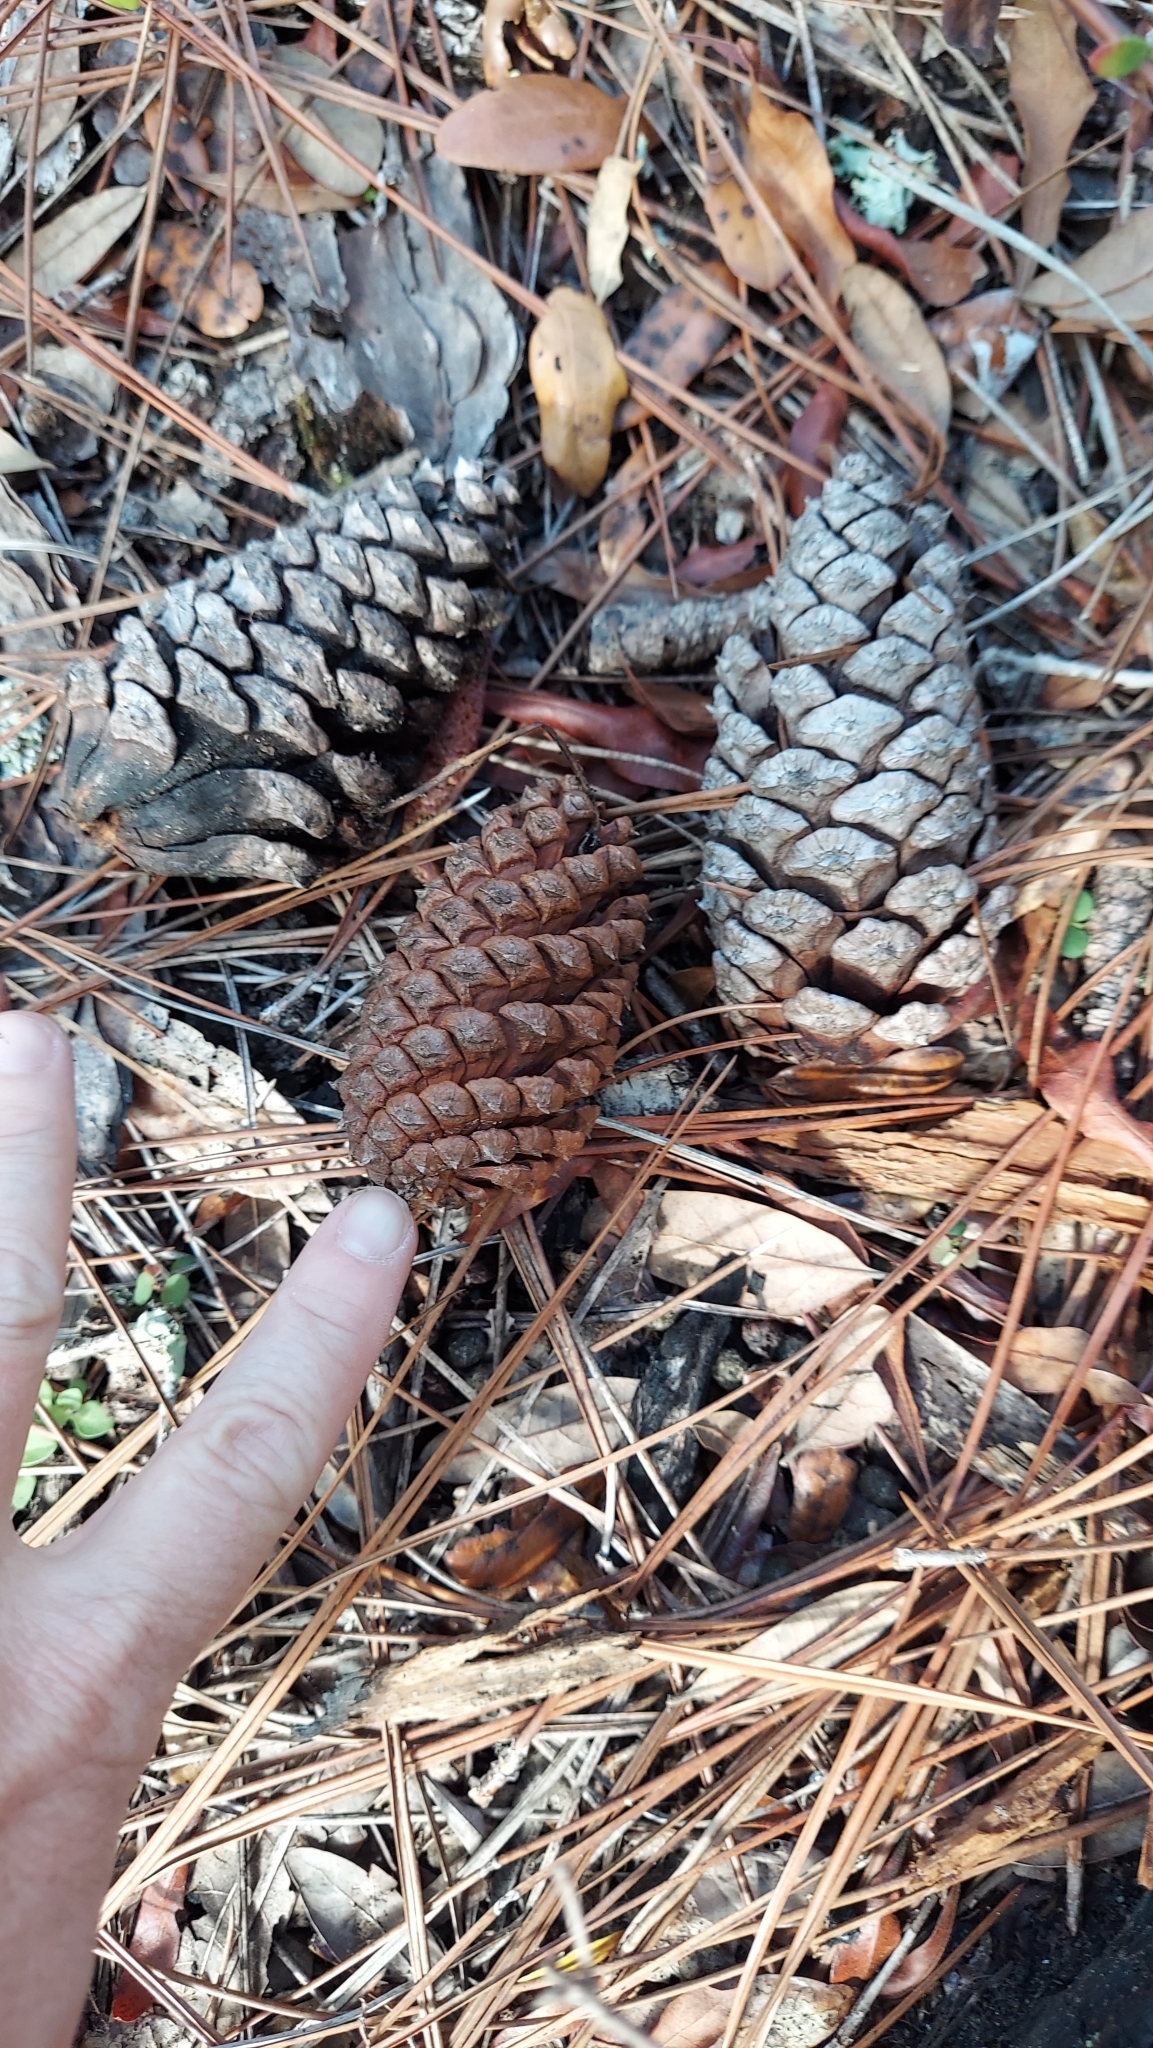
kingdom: Plantae
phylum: Tracheophyta
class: Pinopsida
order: Pinales
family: Pinaceae
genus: Pinus
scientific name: Pinus elliottii
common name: Slash pine
